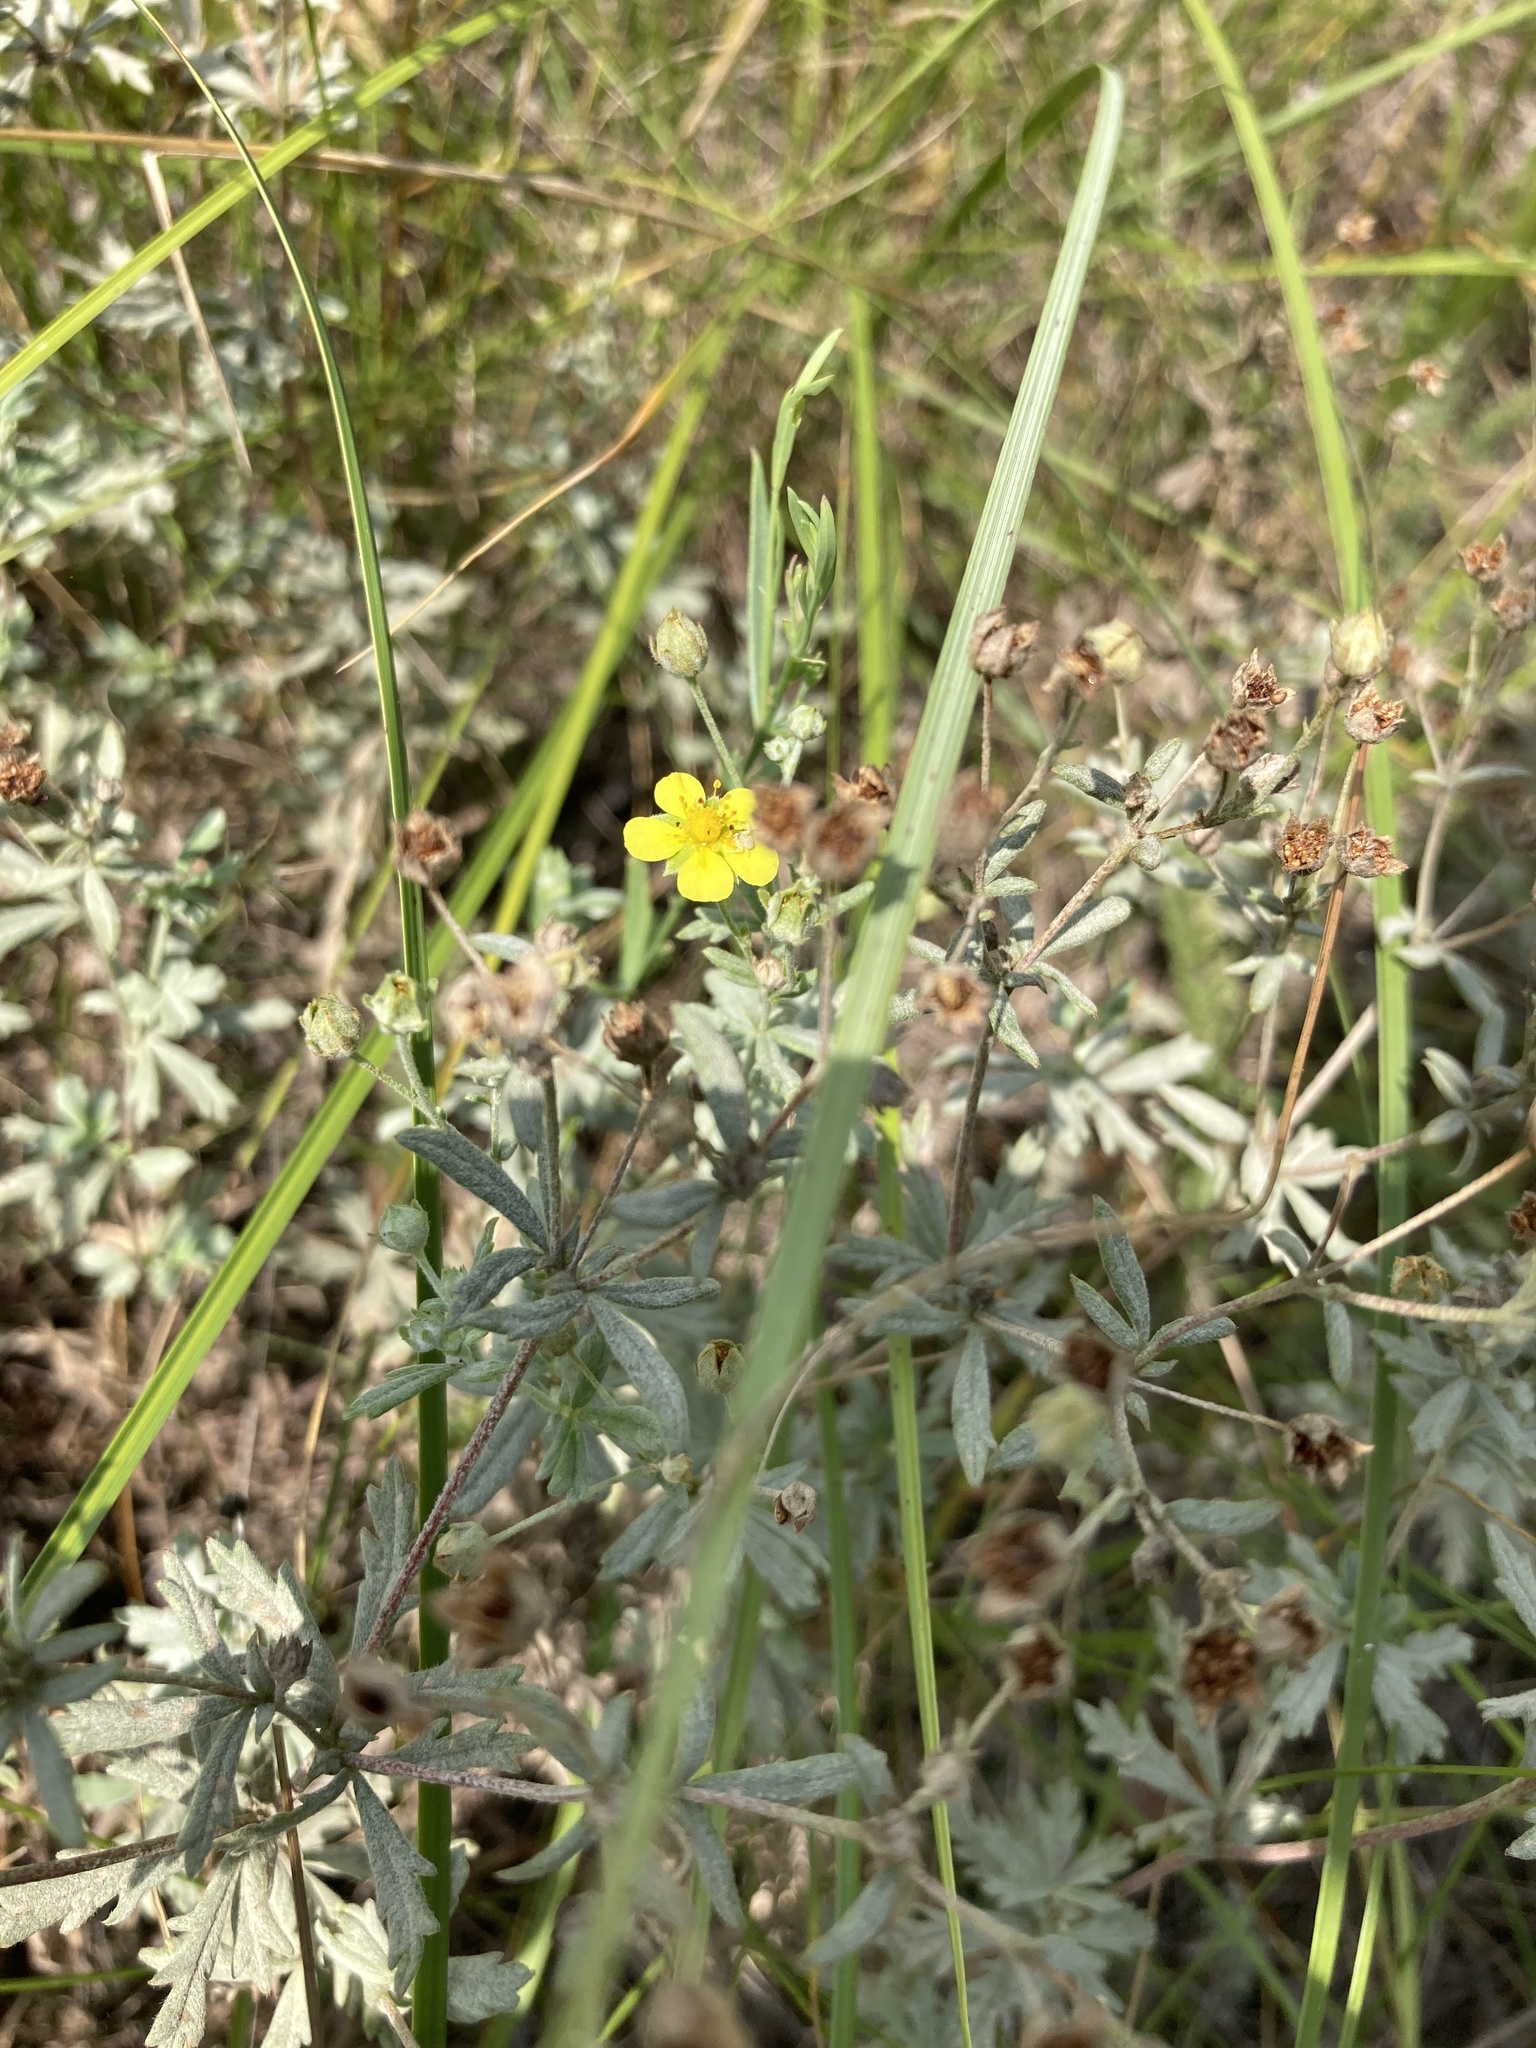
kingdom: Plantae
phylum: Tracheophyta
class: Magnoliopsida
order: Rosales
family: Rosaceae
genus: Potentilla
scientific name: Potentilla argentea
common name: Hoary cinquefoil
